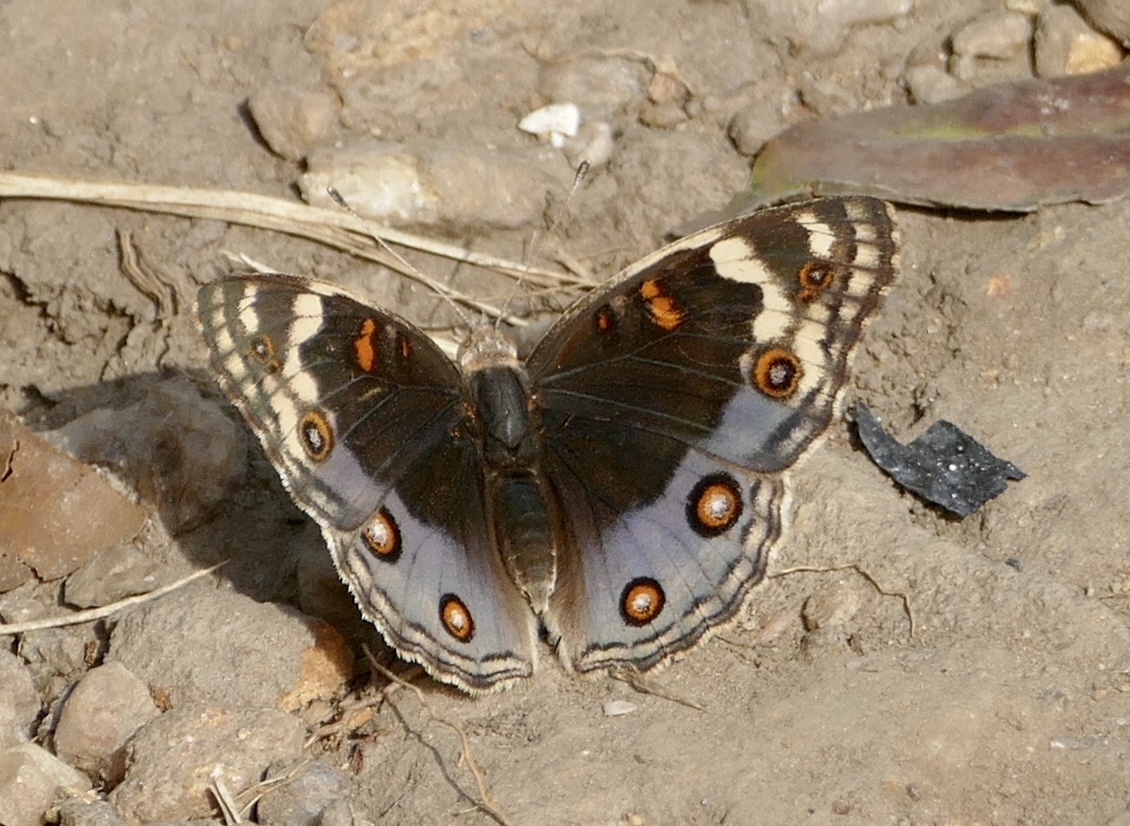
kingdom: Animalia
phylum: Arthropoda
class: Insecta
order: Lepidoptera
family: Nymphalidae
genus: Junonia
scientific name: Junonia orithya
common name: Blue pansy
